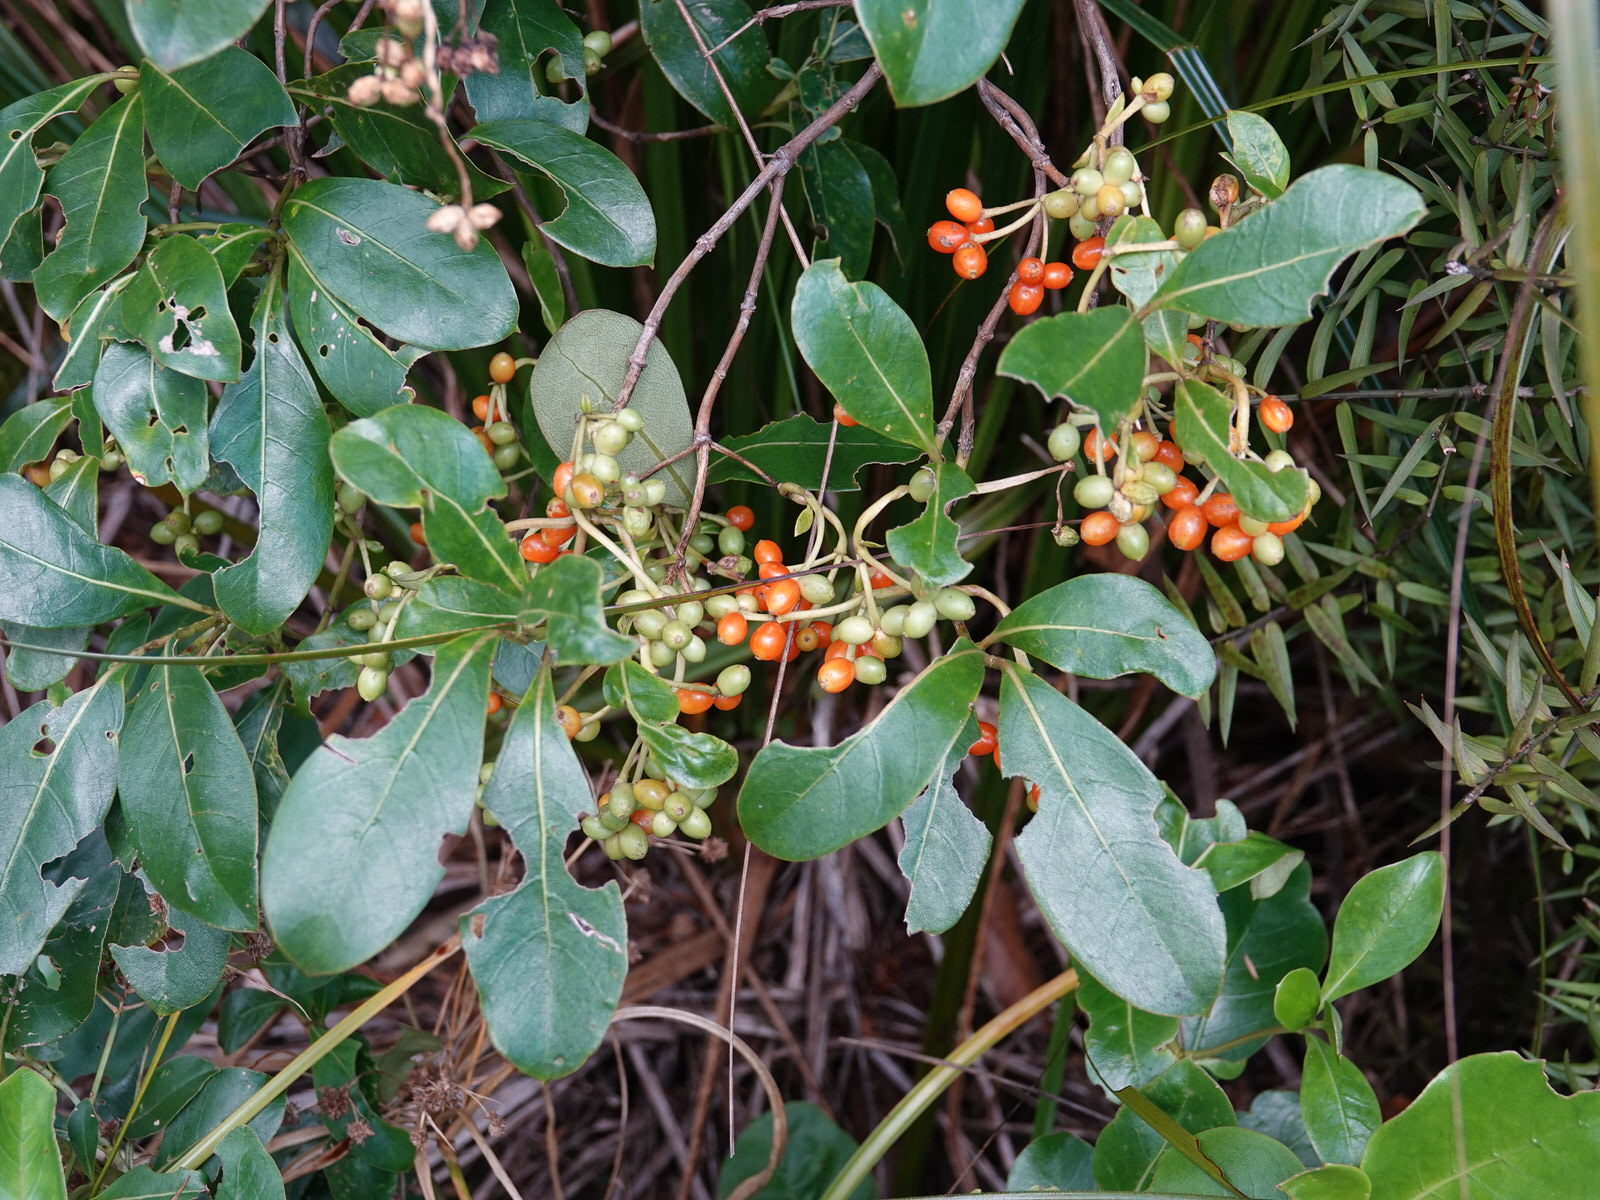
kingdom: Plantae
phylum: Tracheophyta
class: Magnoliopsida
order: Gentianales
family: Rubiaceae
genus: Coprosma
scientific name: Coprosma lucida
